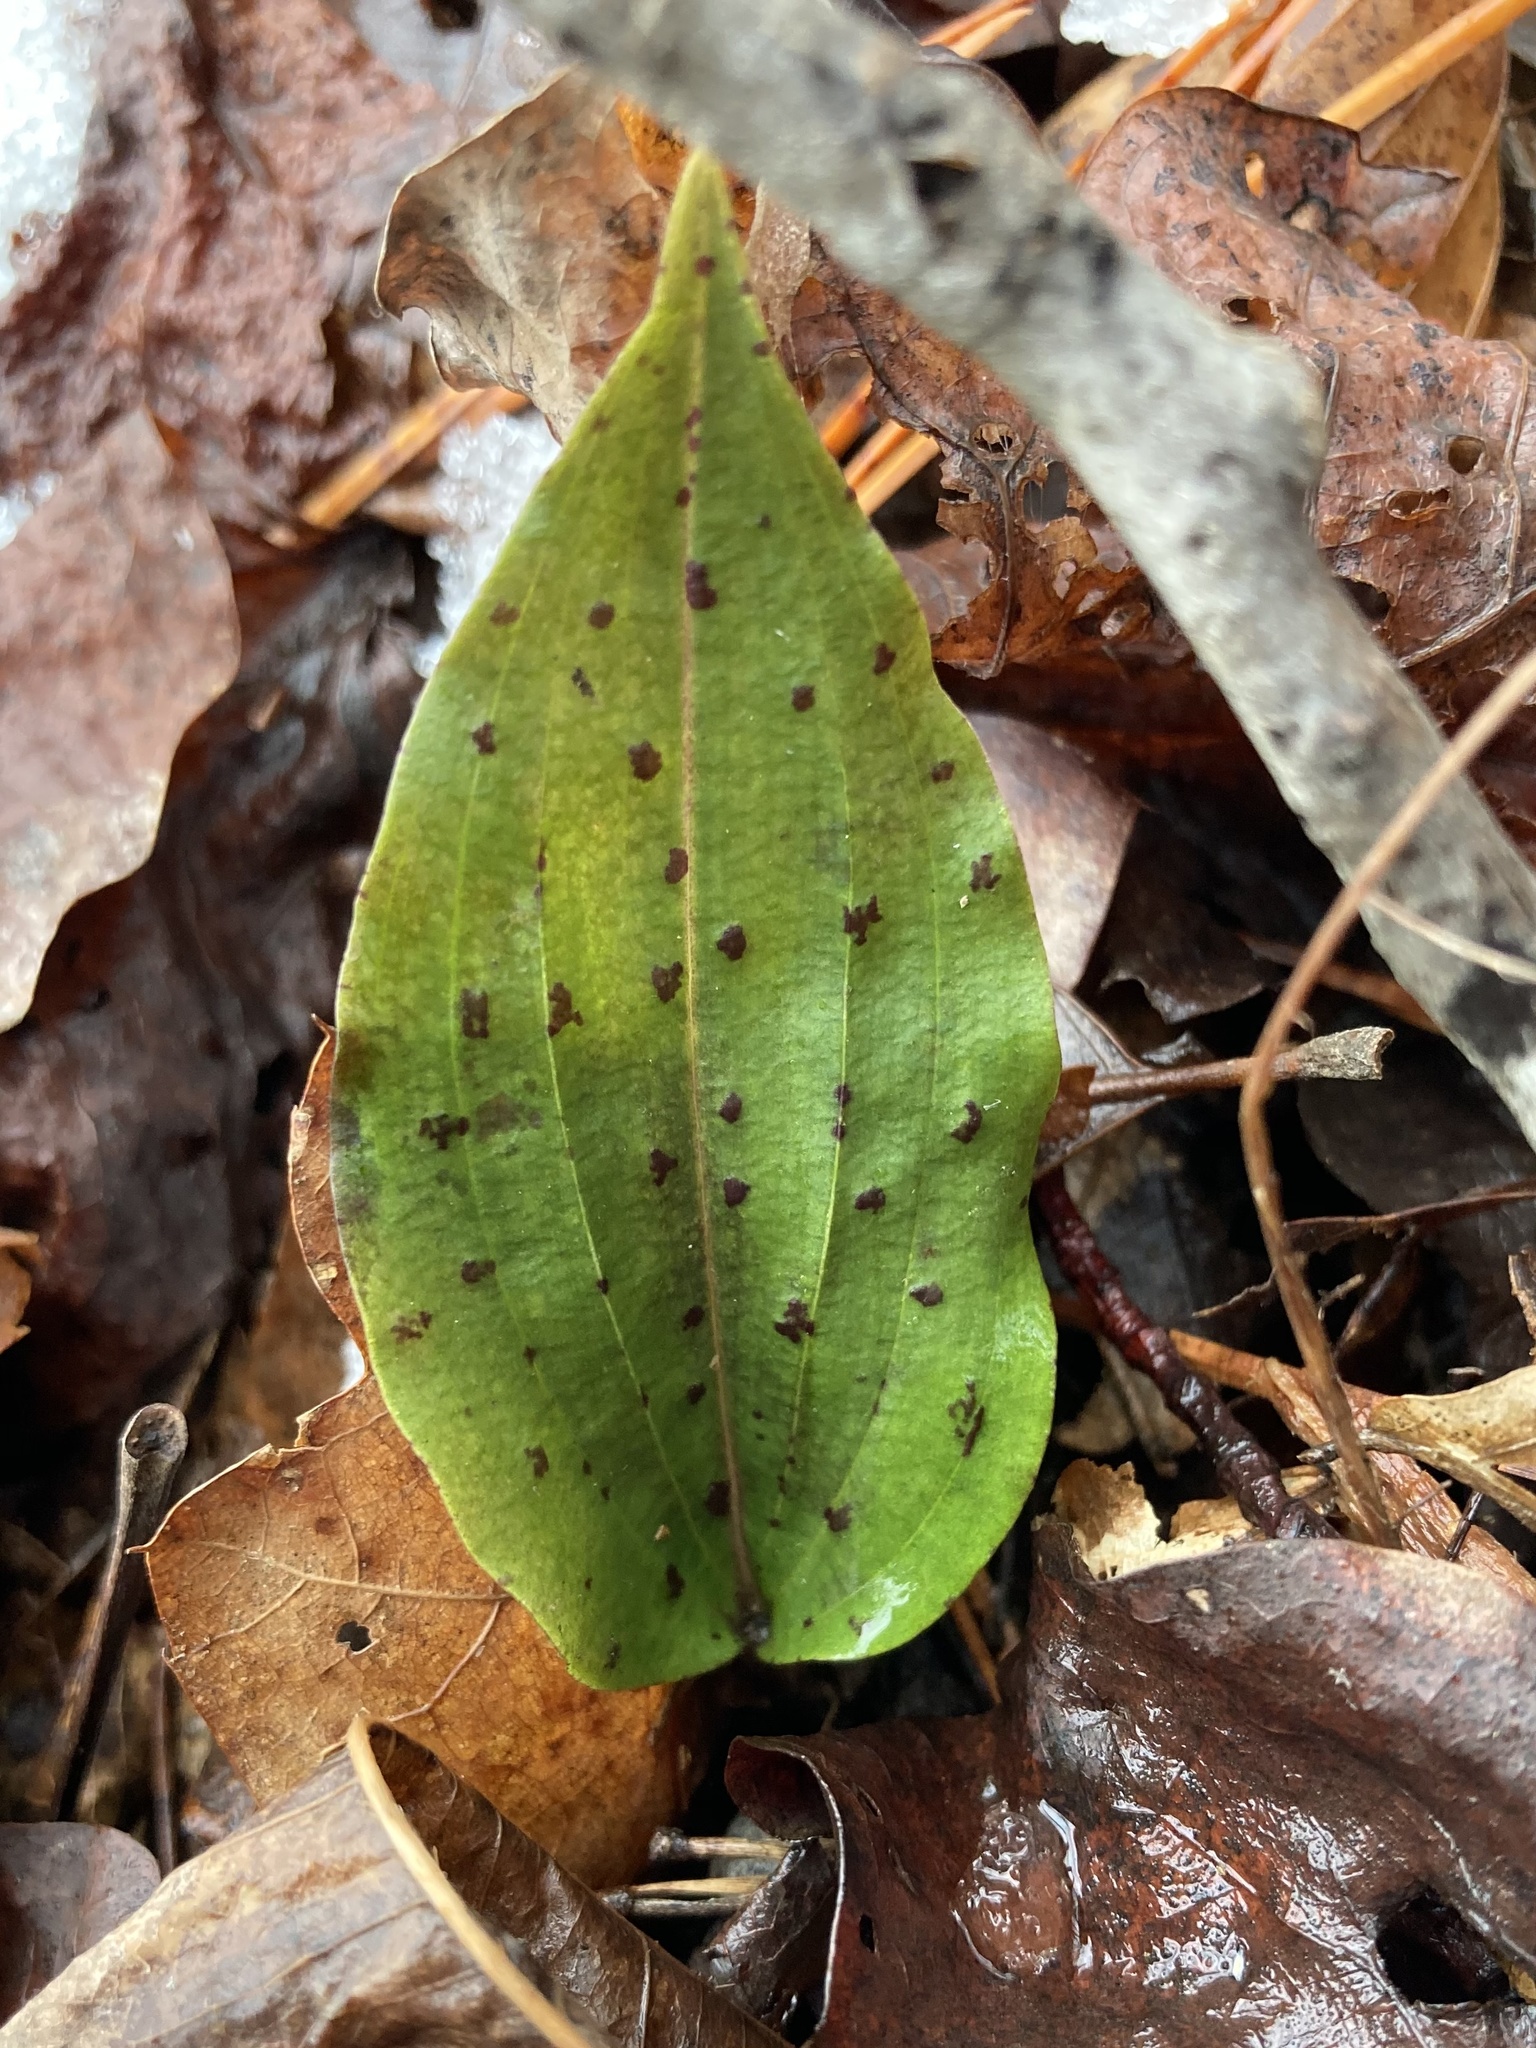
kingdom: Plantae
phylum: Tracheophyta
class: Liliopsida
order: Asparagales
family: Orchidaceae
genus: Tipularia
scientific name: Tipularia discolor
